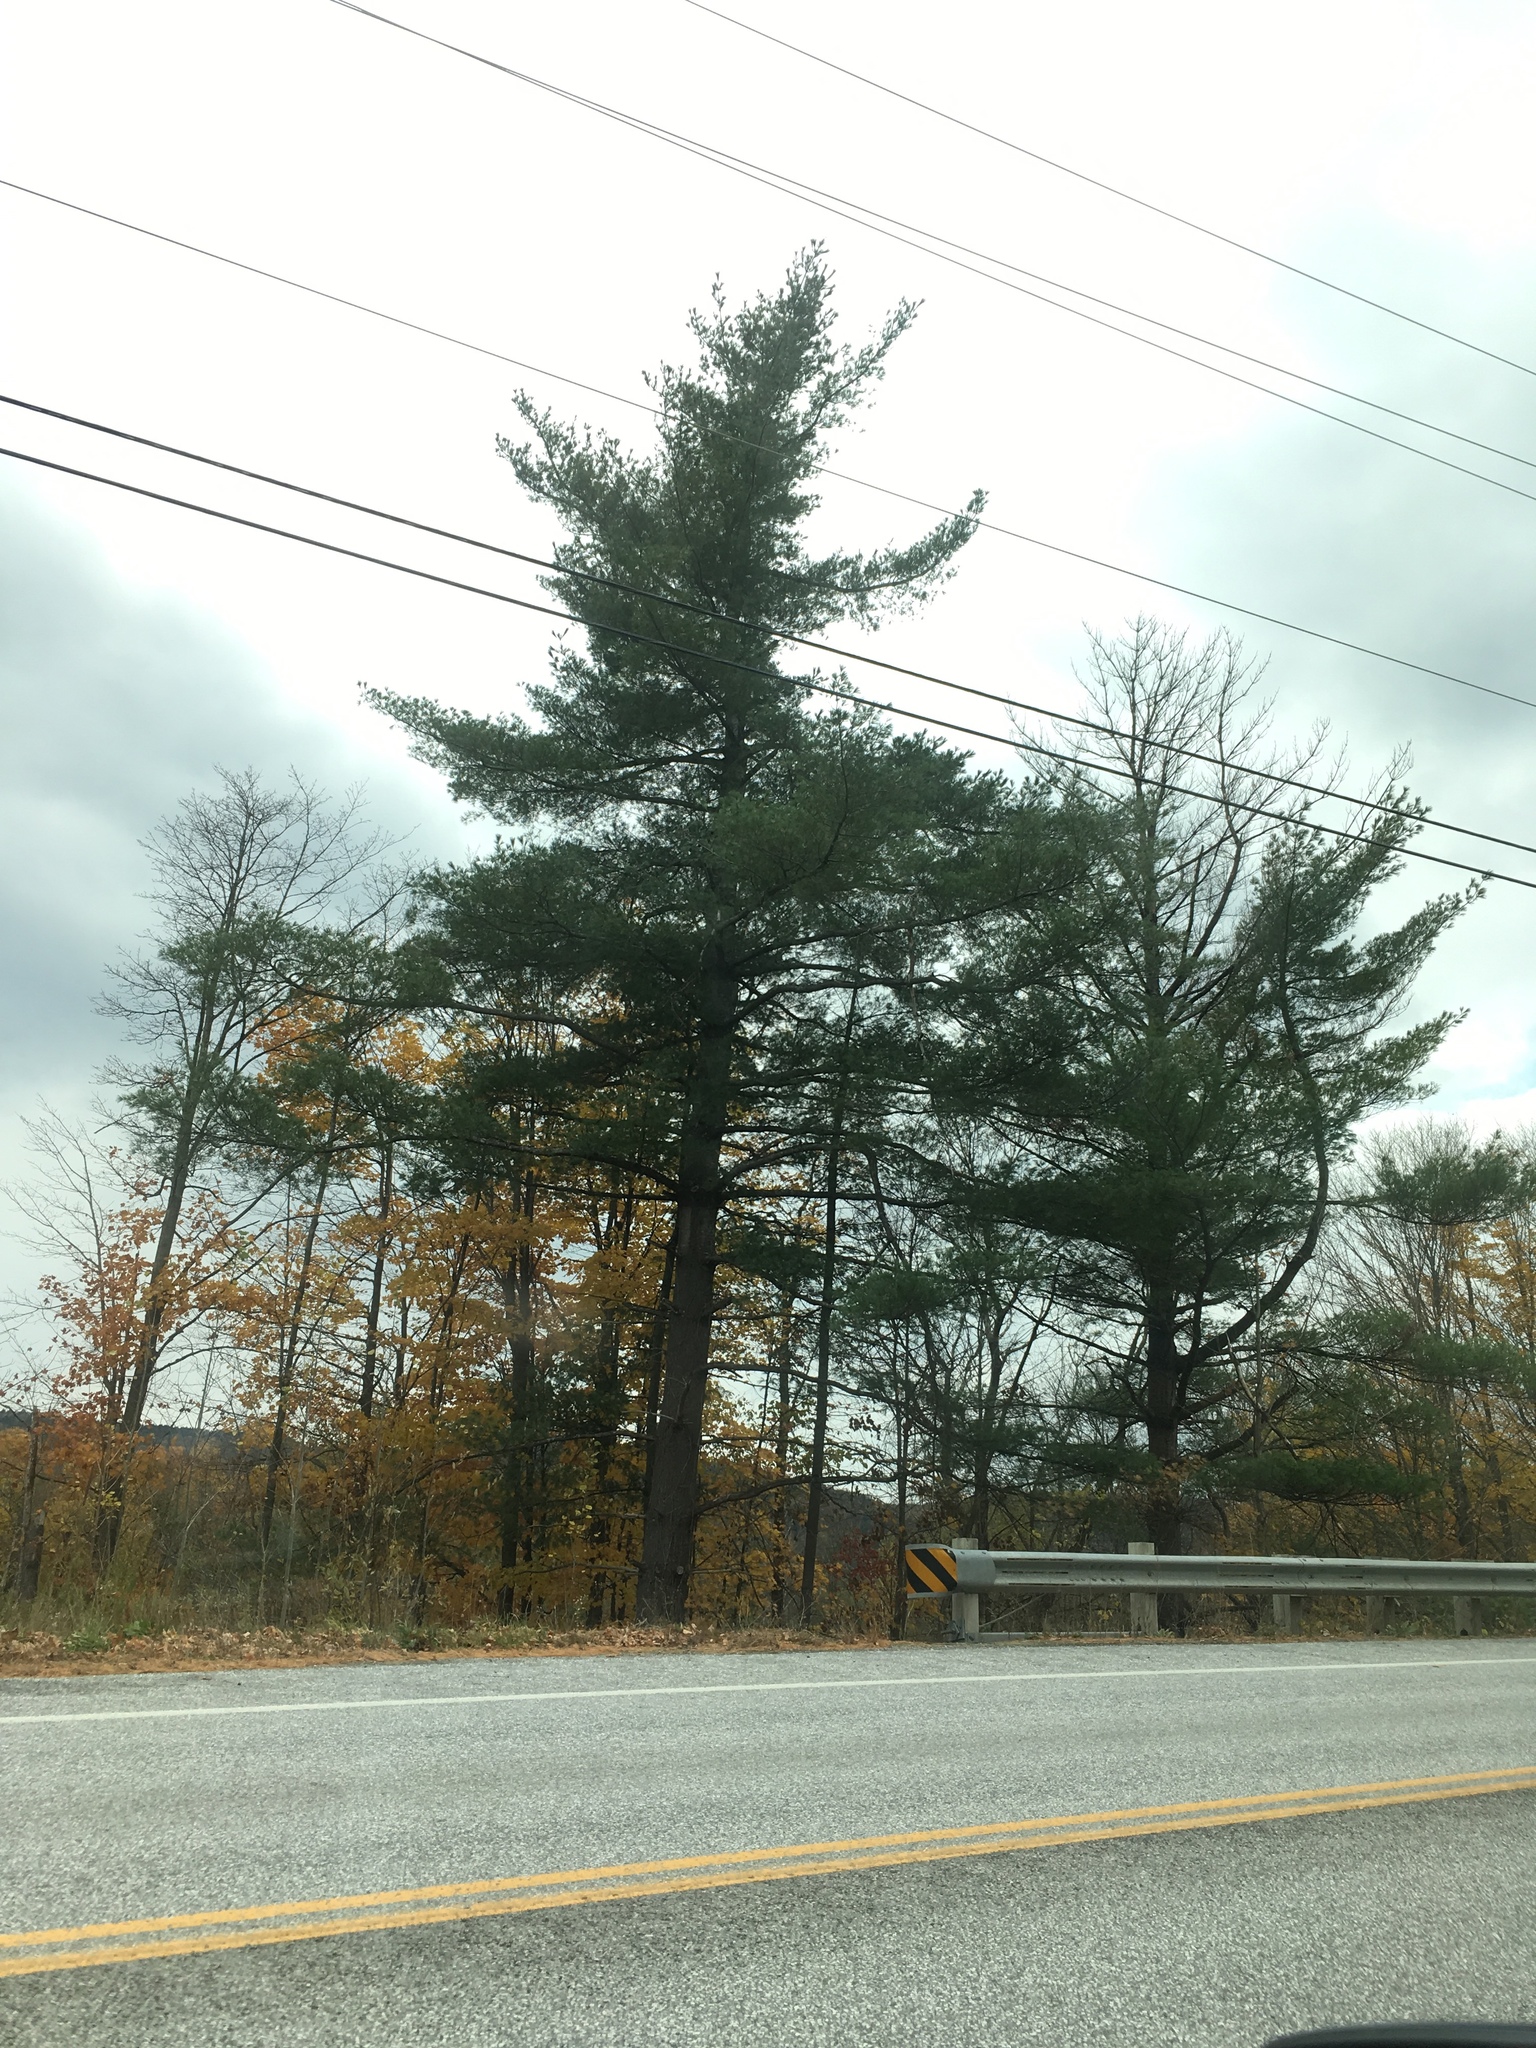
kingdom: Plantae
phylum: Tracheophyta
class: Pinopsida
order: Pinales
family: Pinaceae
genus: Pinus
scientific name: Pinus strobus
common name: Weymouth pine
